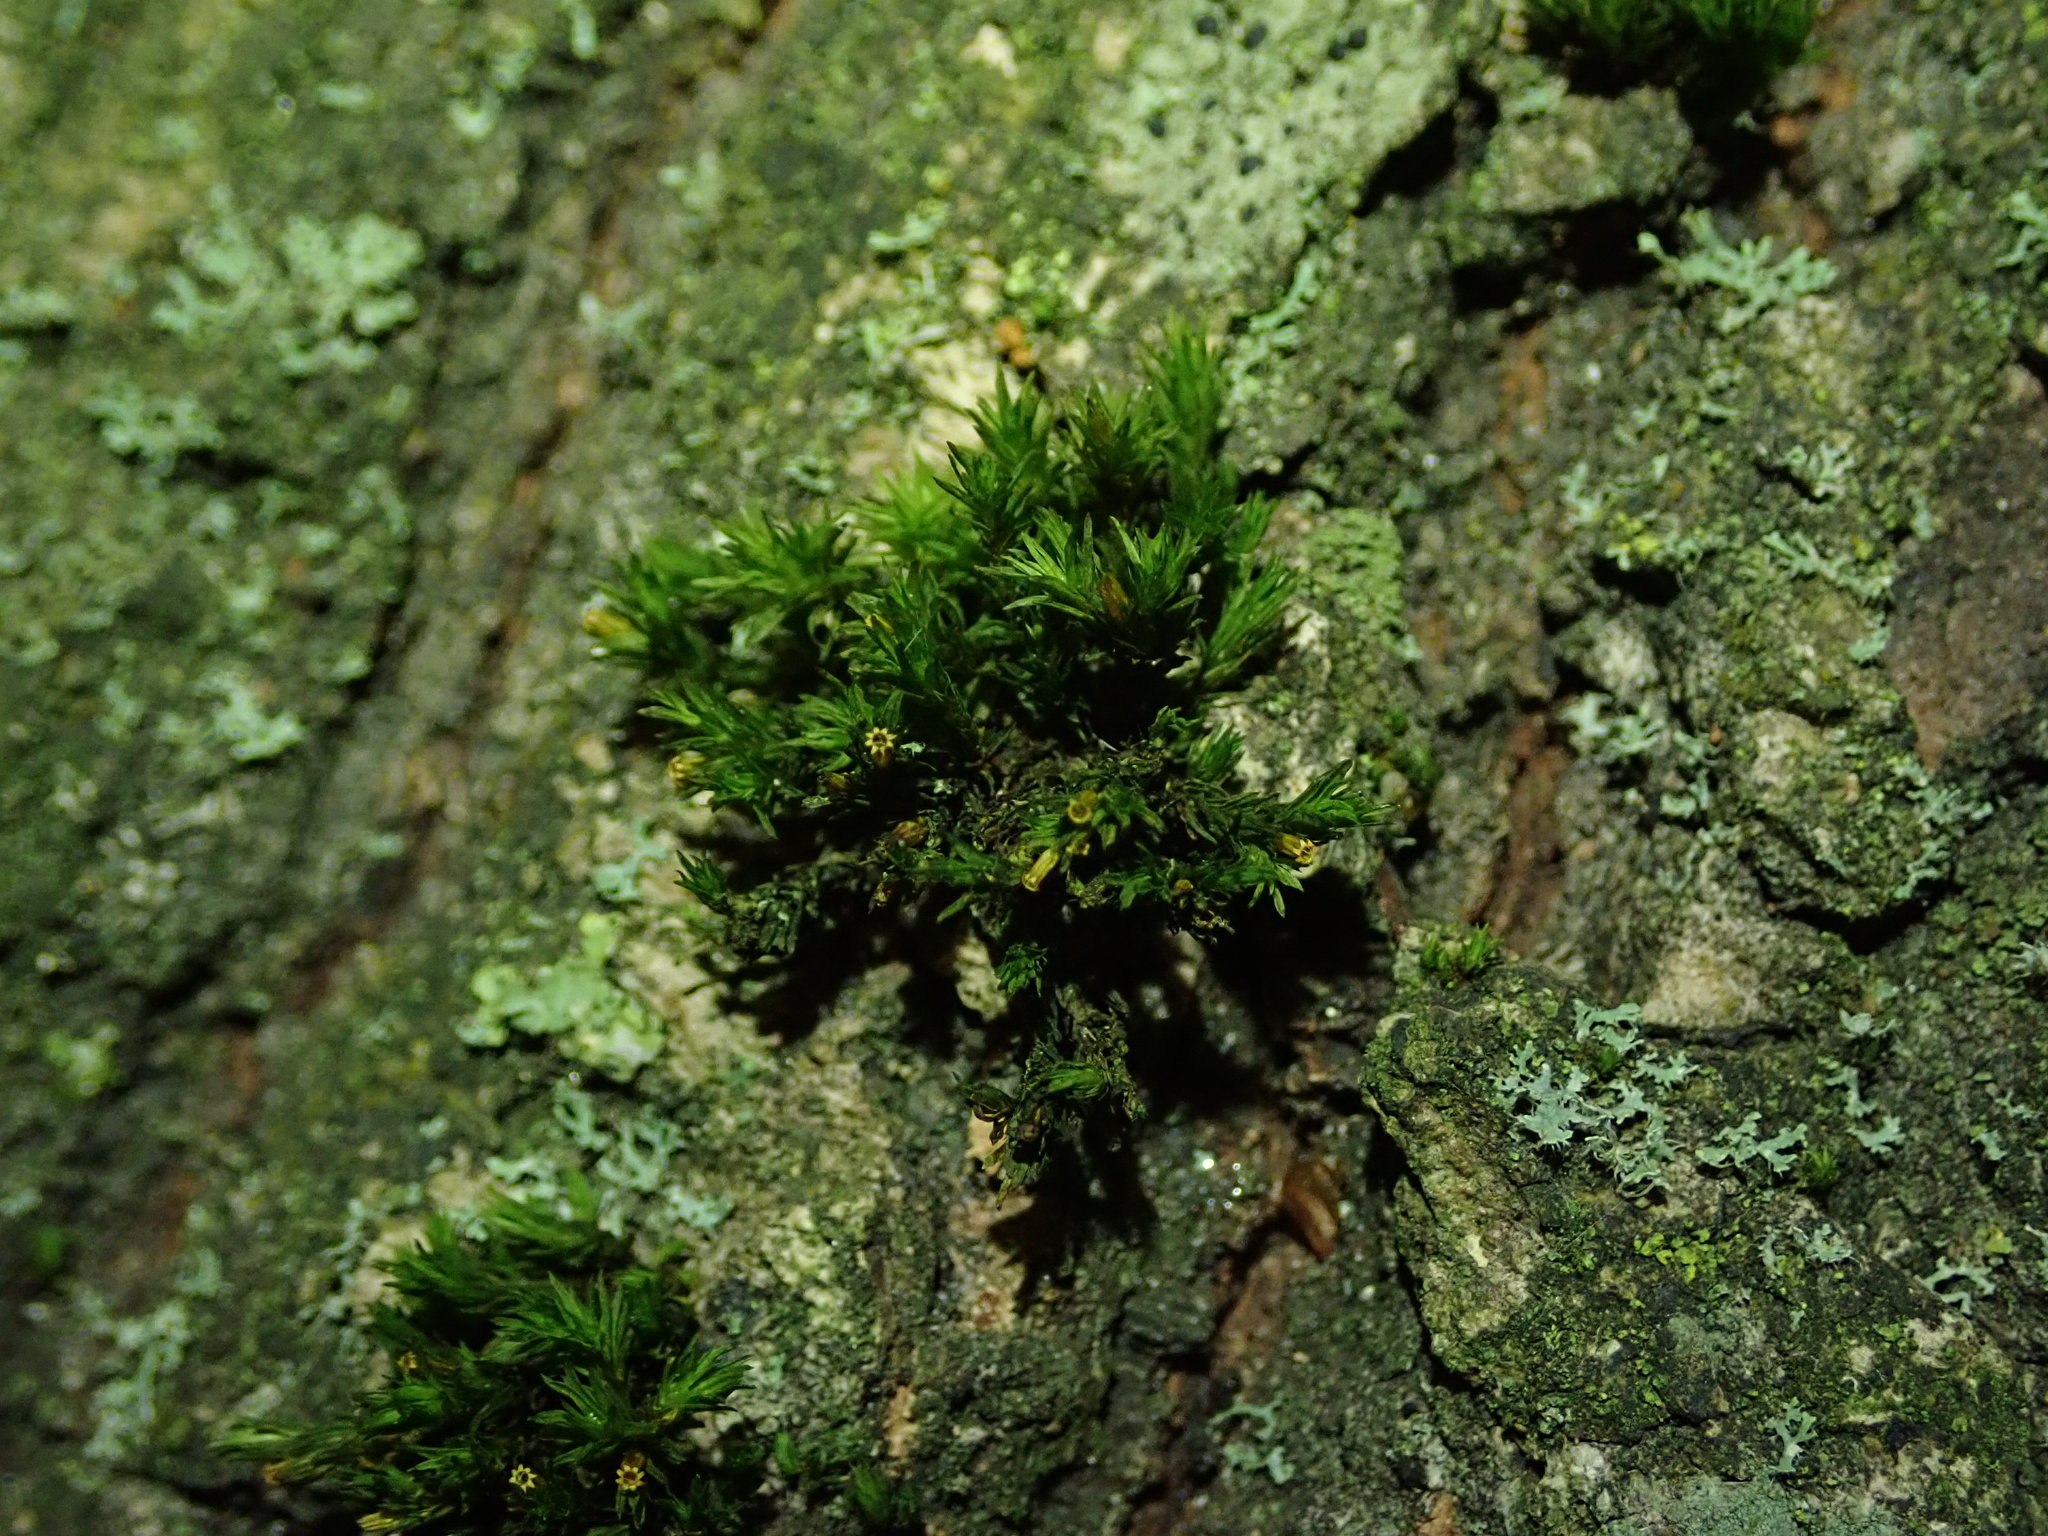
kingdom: Plantae
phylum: Bryophyta
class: Bryopsida
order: Orthotrichales
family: Orthotrichaceae
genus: Lewinskya
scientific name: Lewinskya affinis
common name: Wood bristle-moss
